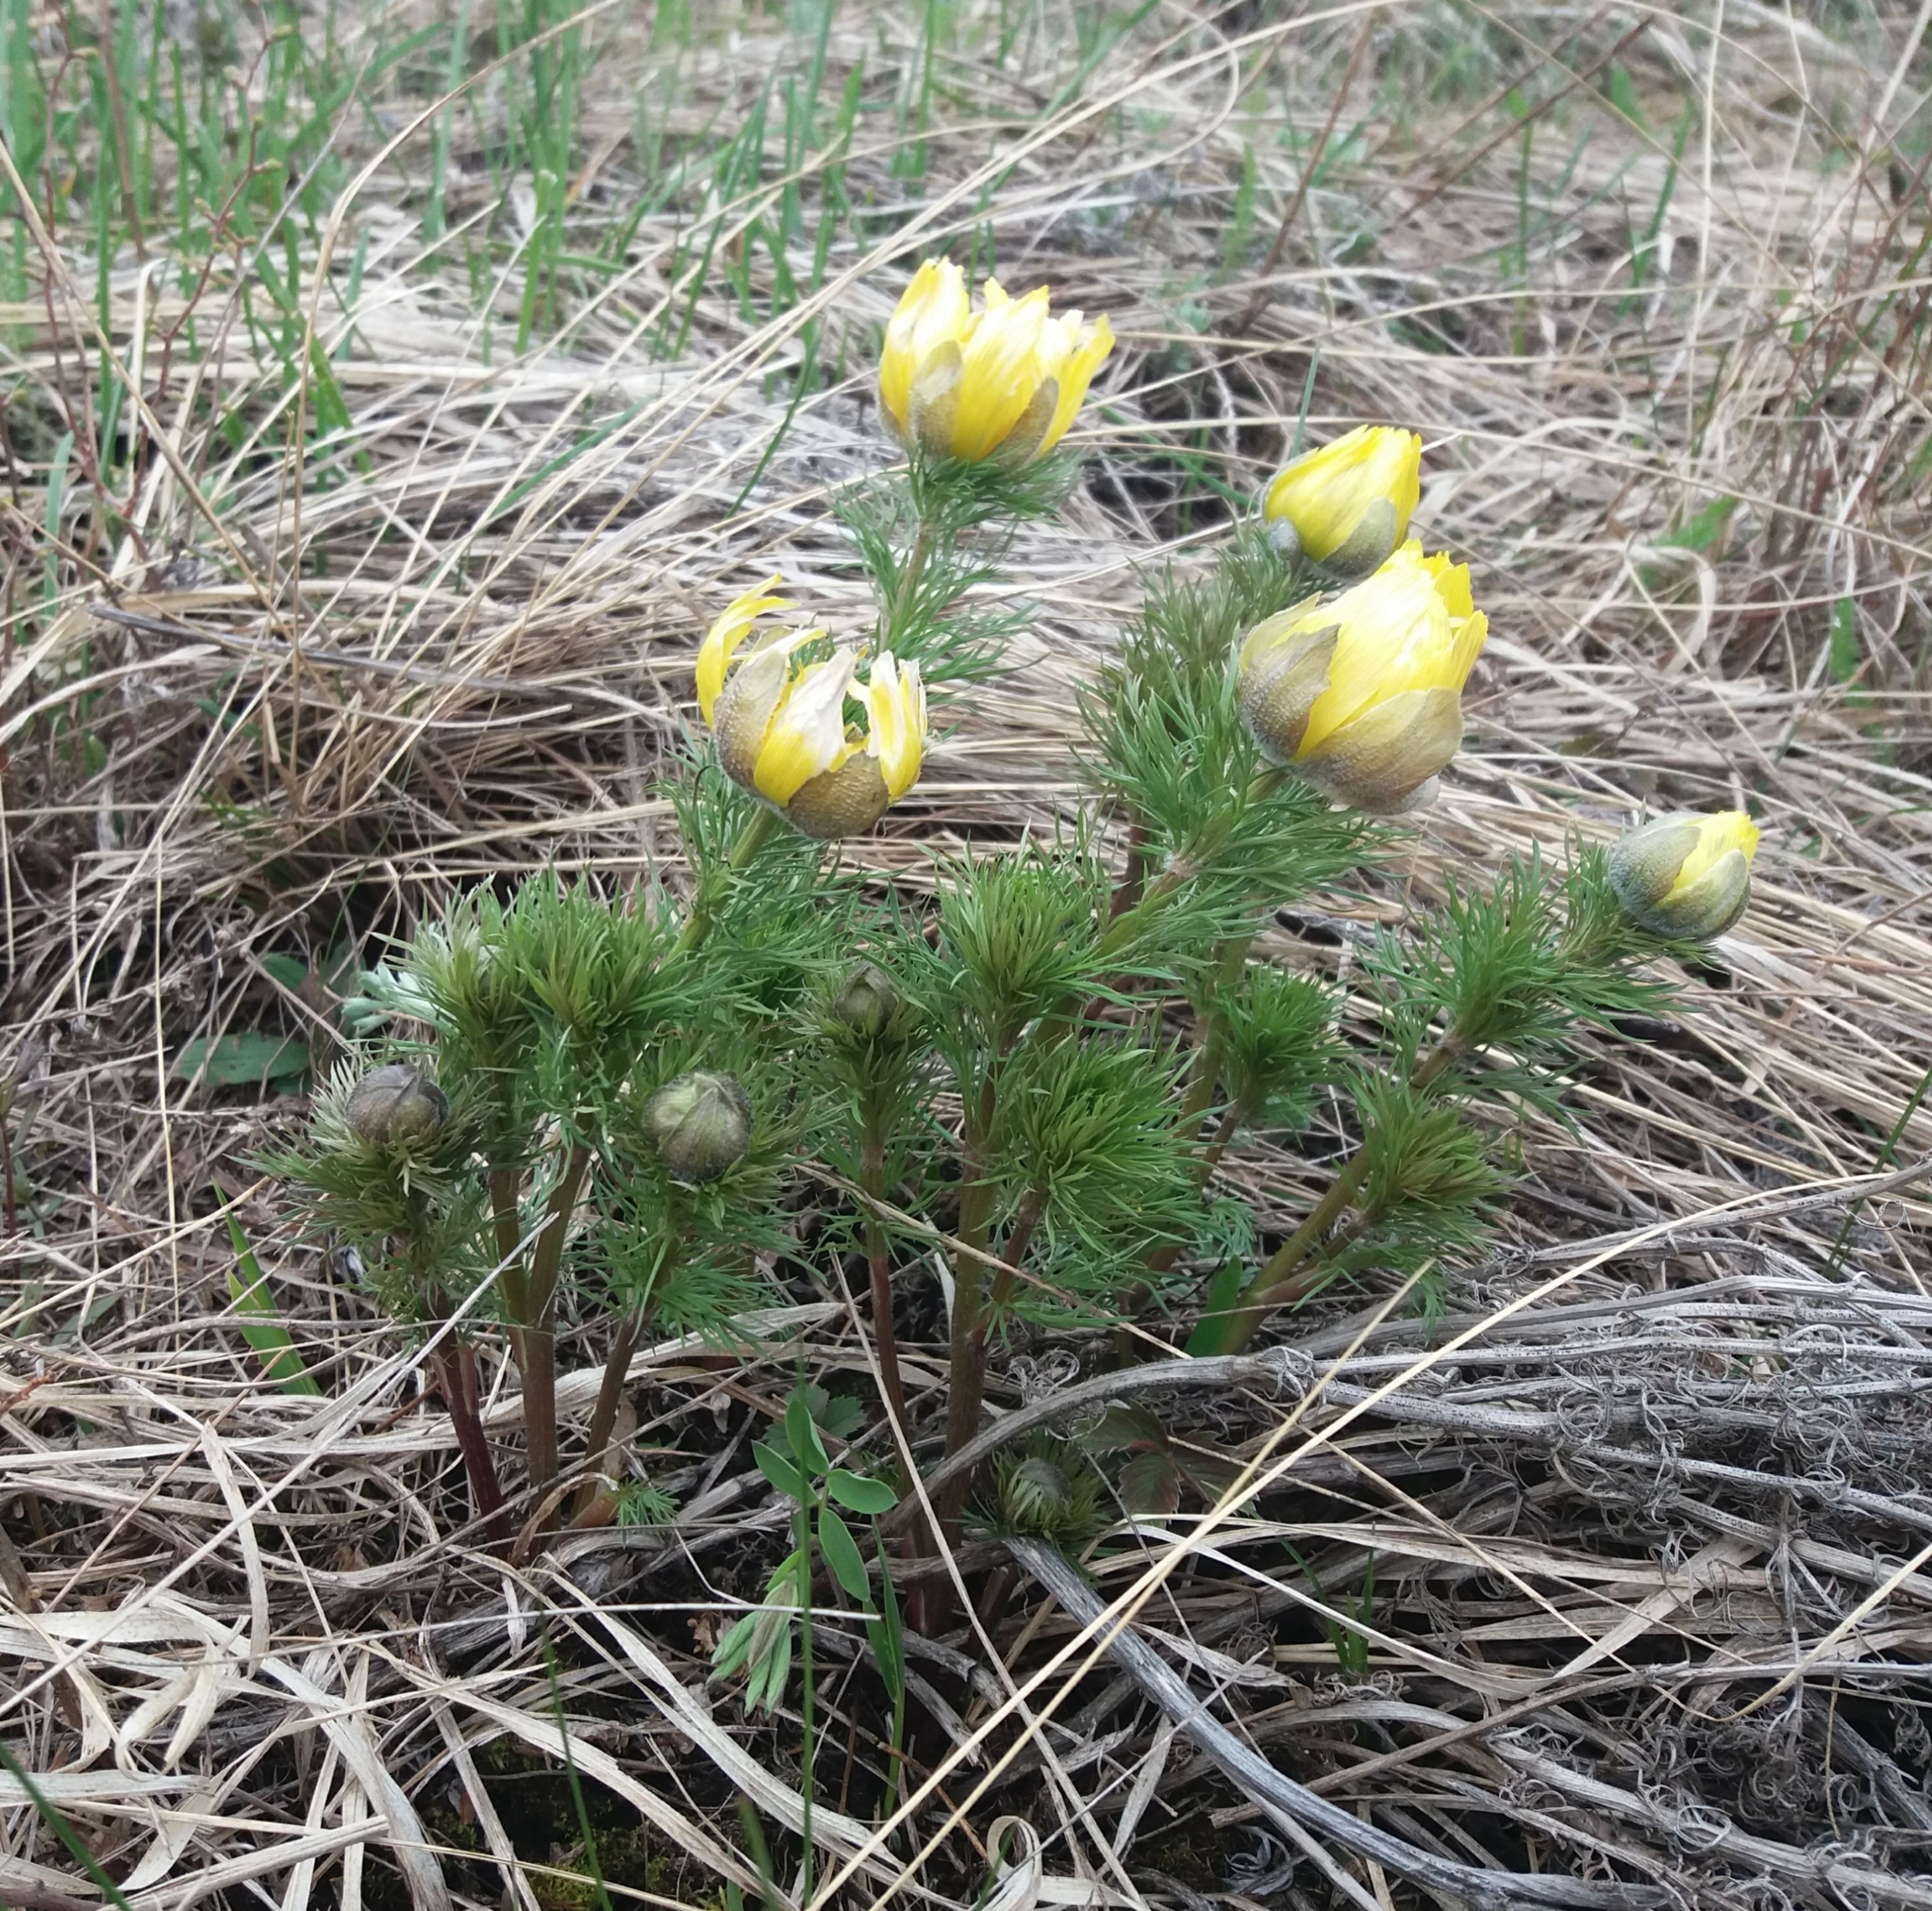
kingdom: Plantae
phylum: Tracheophyta
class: Magnoliopsida
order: Ranunculales
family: Ranunculaceae
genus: Adonis
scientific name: Adonis vernalis
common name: Yellow pheasants-eye
